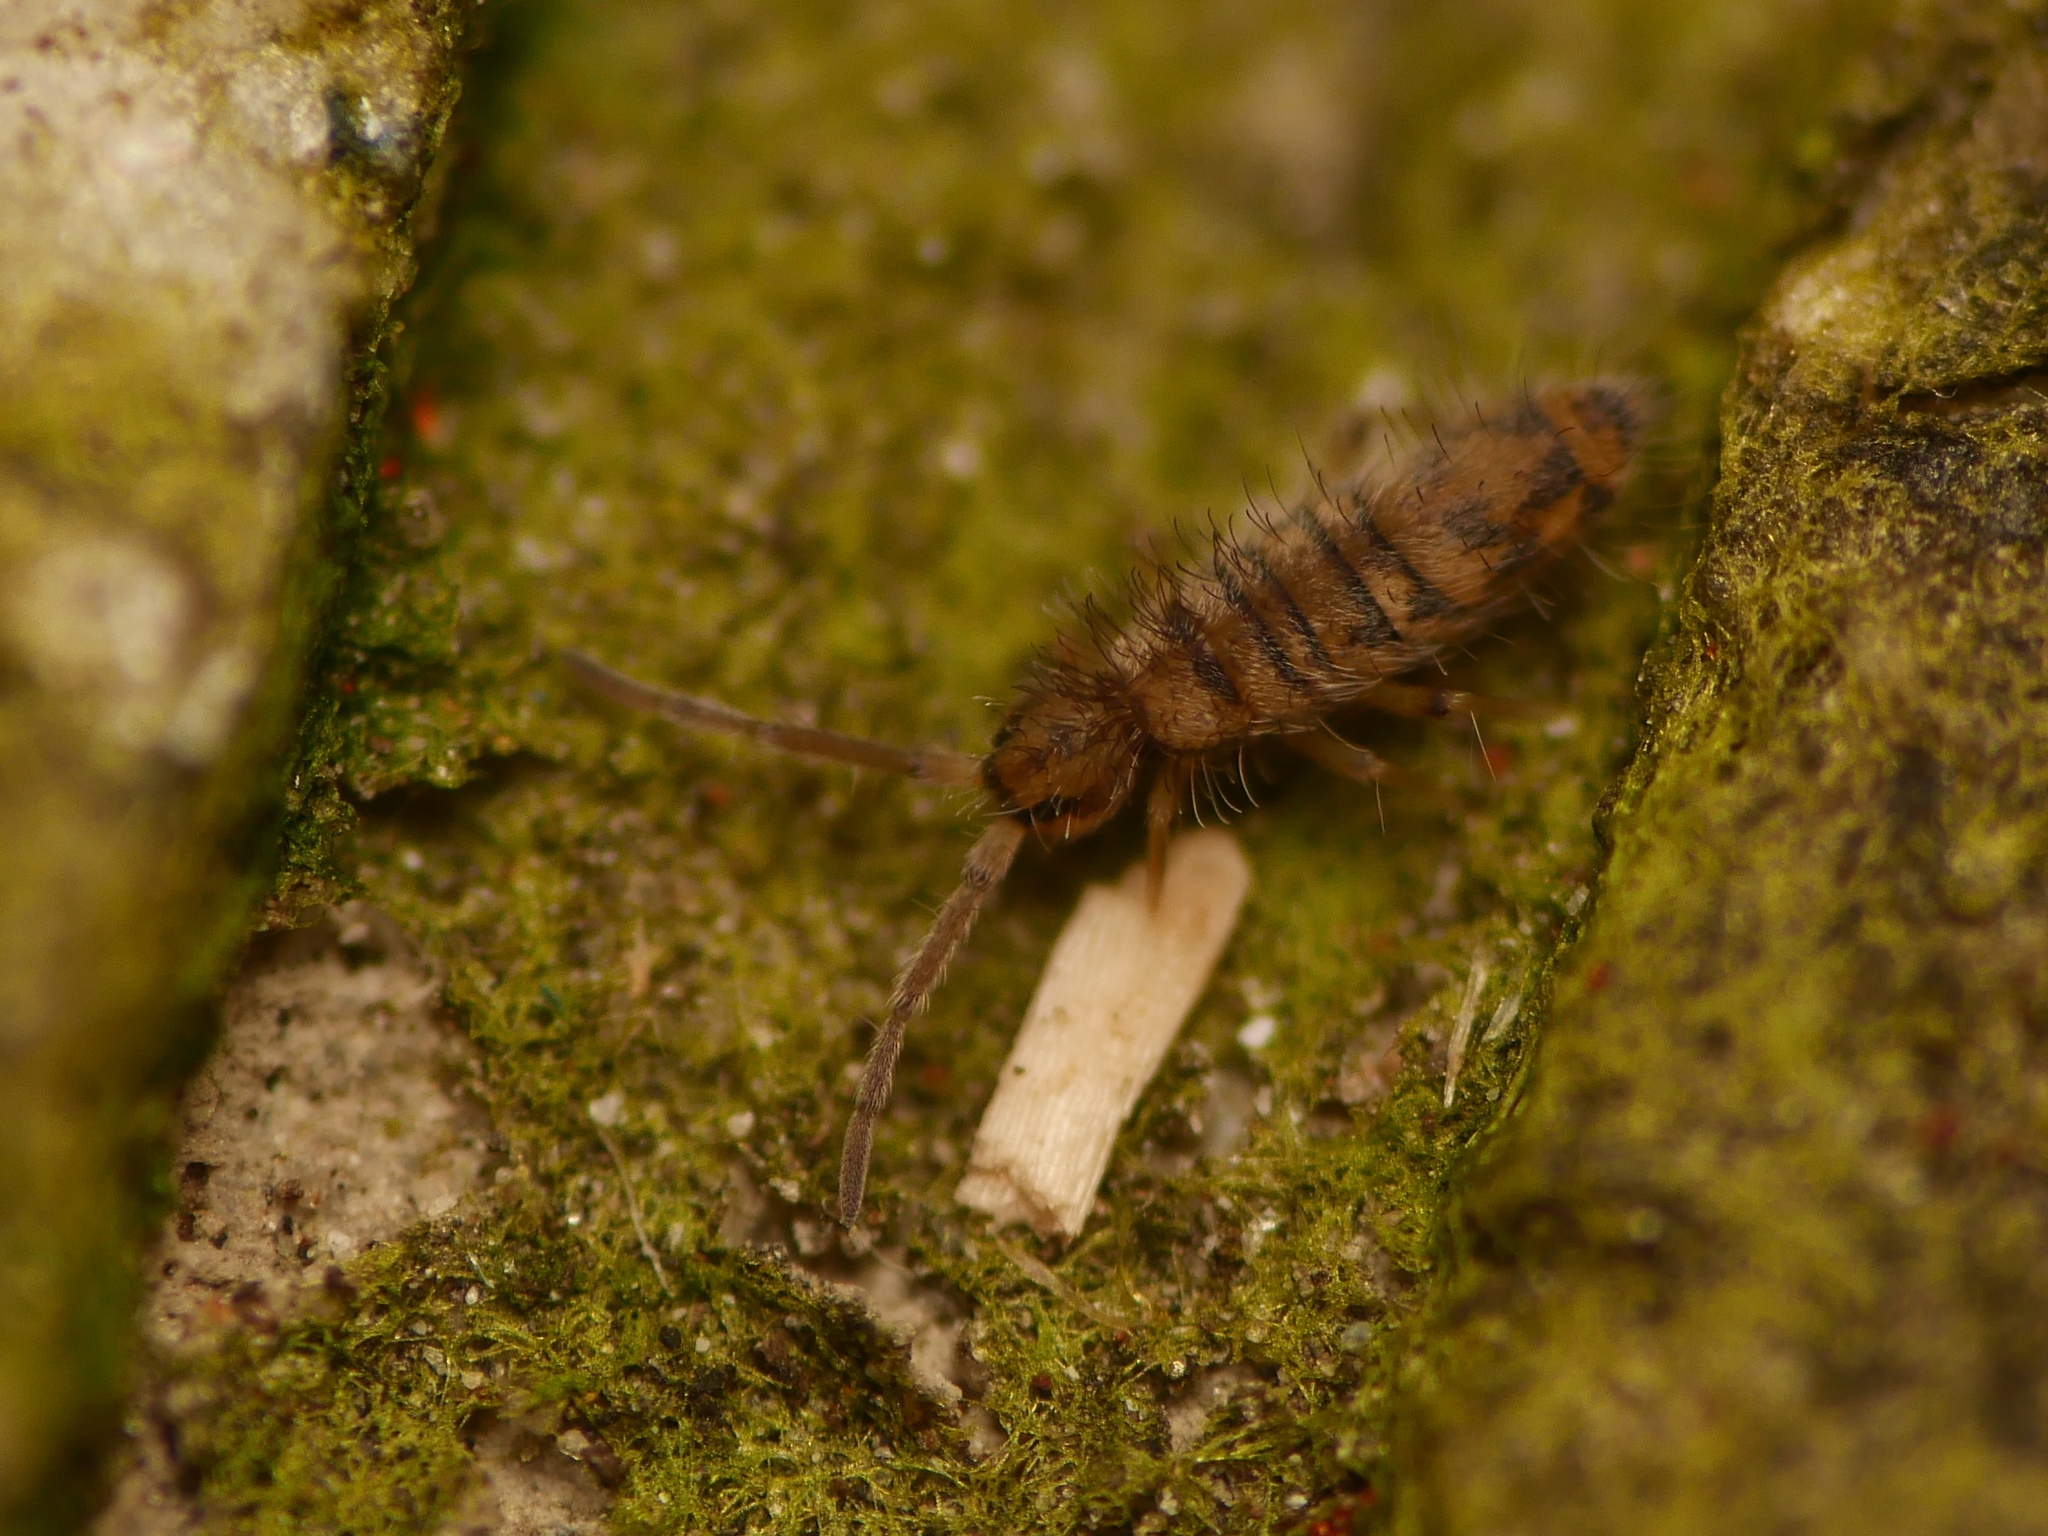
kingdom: Animalia
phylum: Arthropoda
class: Collembola
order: Entomobryomorpha
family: Entomobryidae
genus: Entomobrya
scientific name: Entomobrya multifasciata
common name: Springtail
